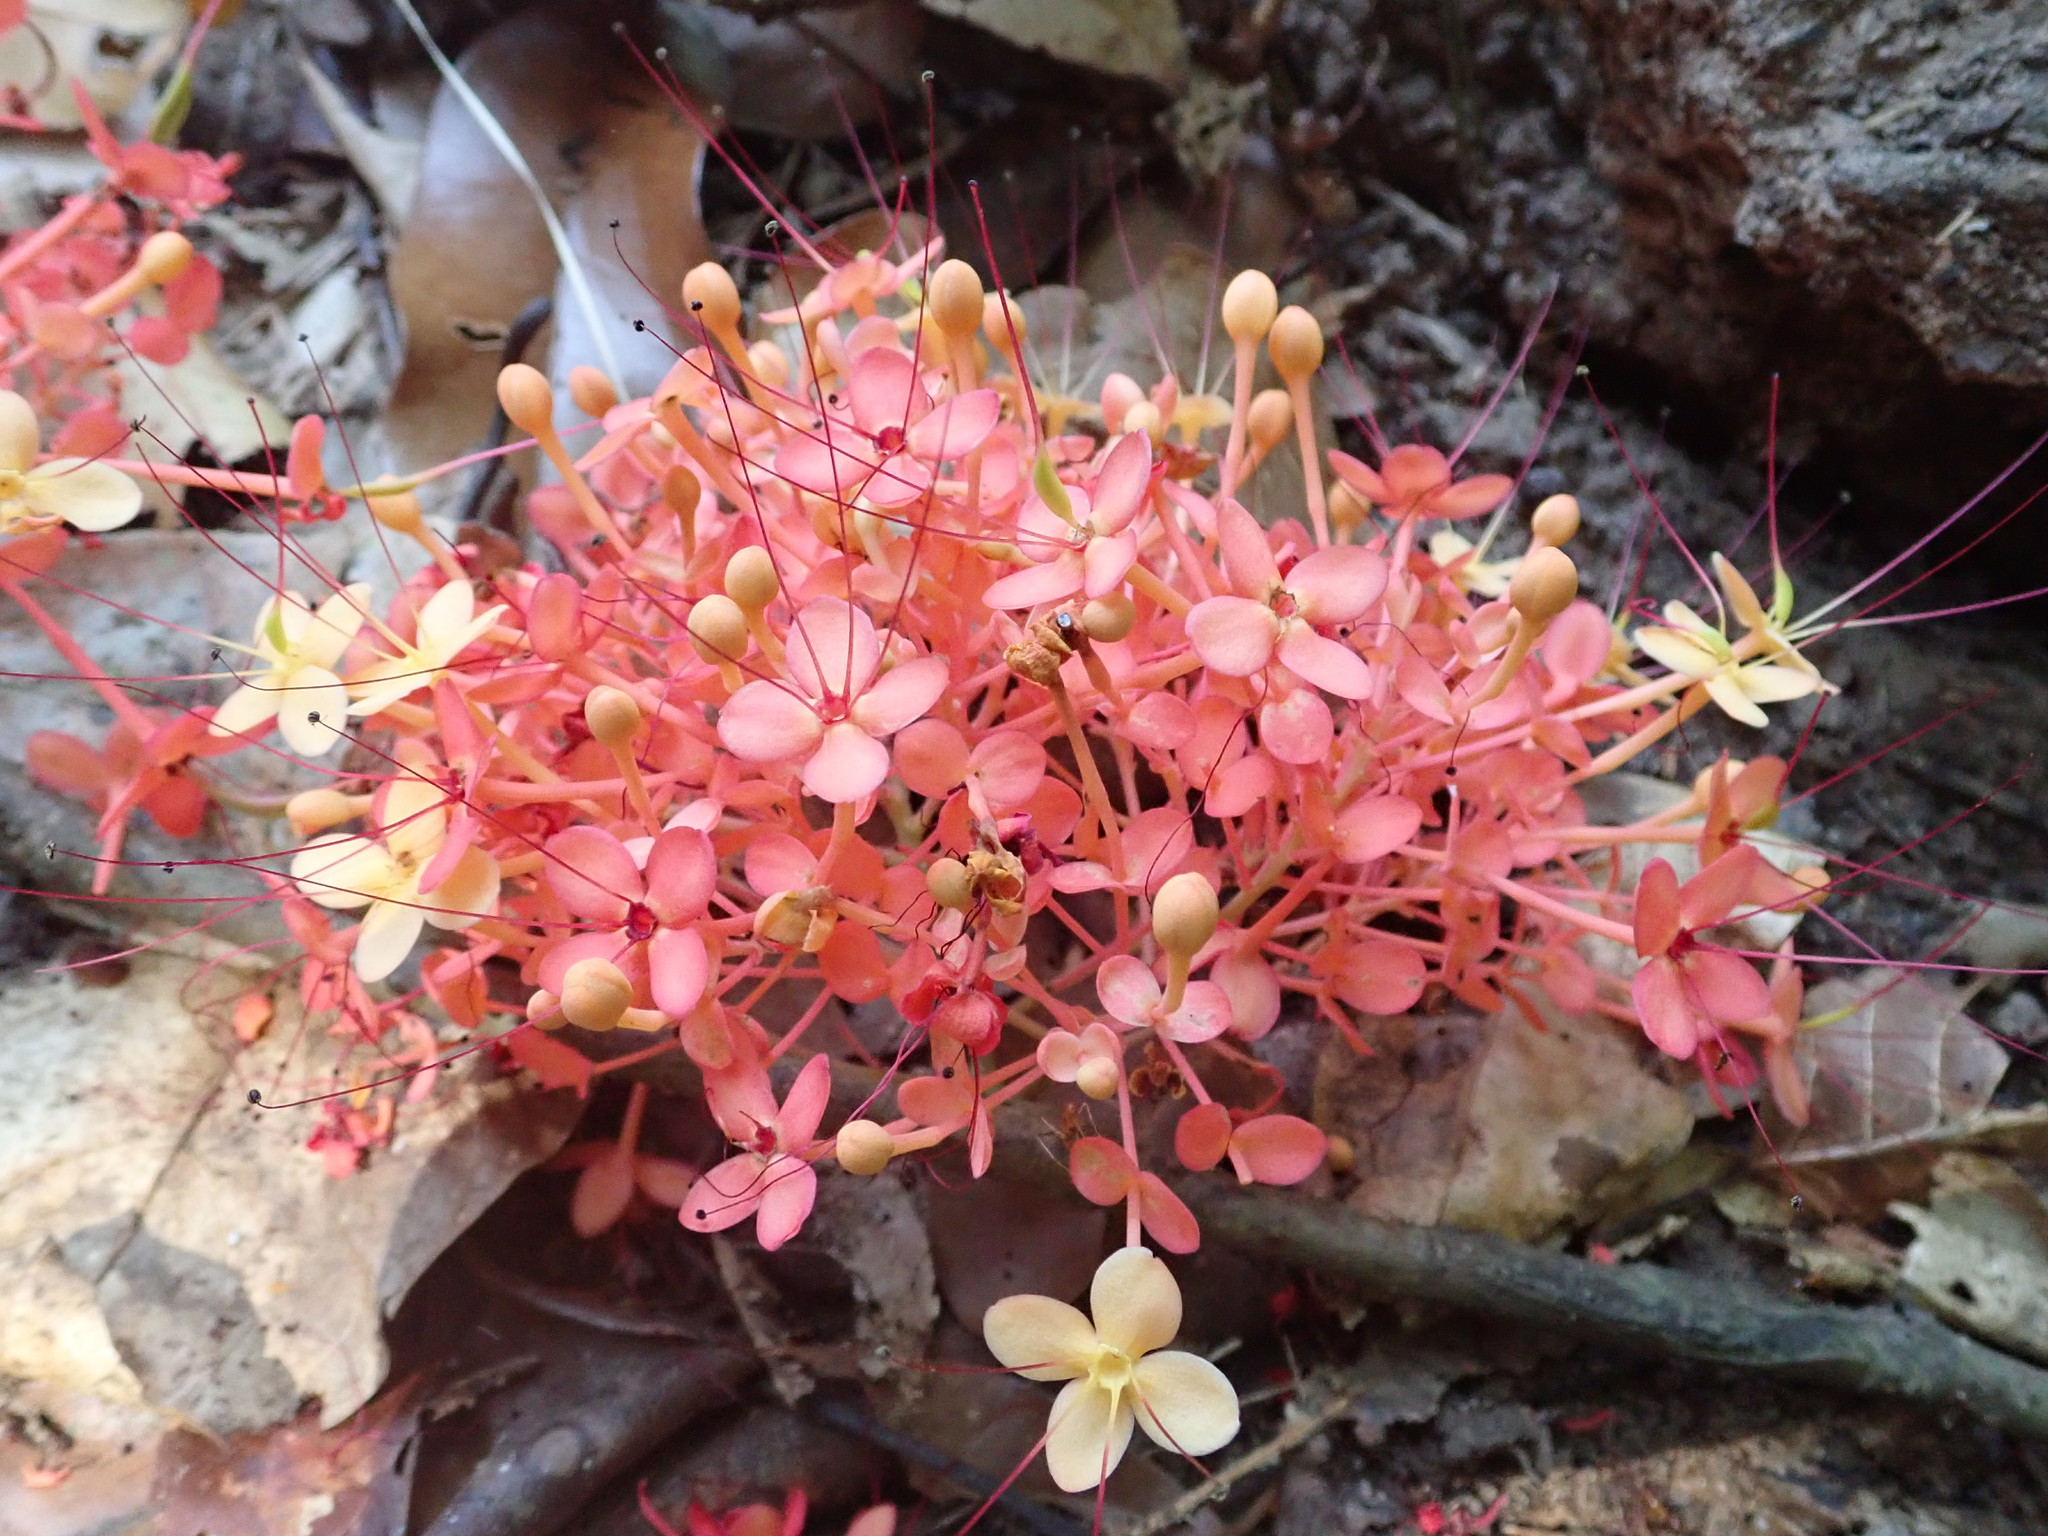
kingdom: Plantae
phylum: Tracheophyta
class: Magnoliopsida
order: Fabales
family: Fabaceae
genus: Saraca
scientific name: Saraca declinata
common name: Red saraca
